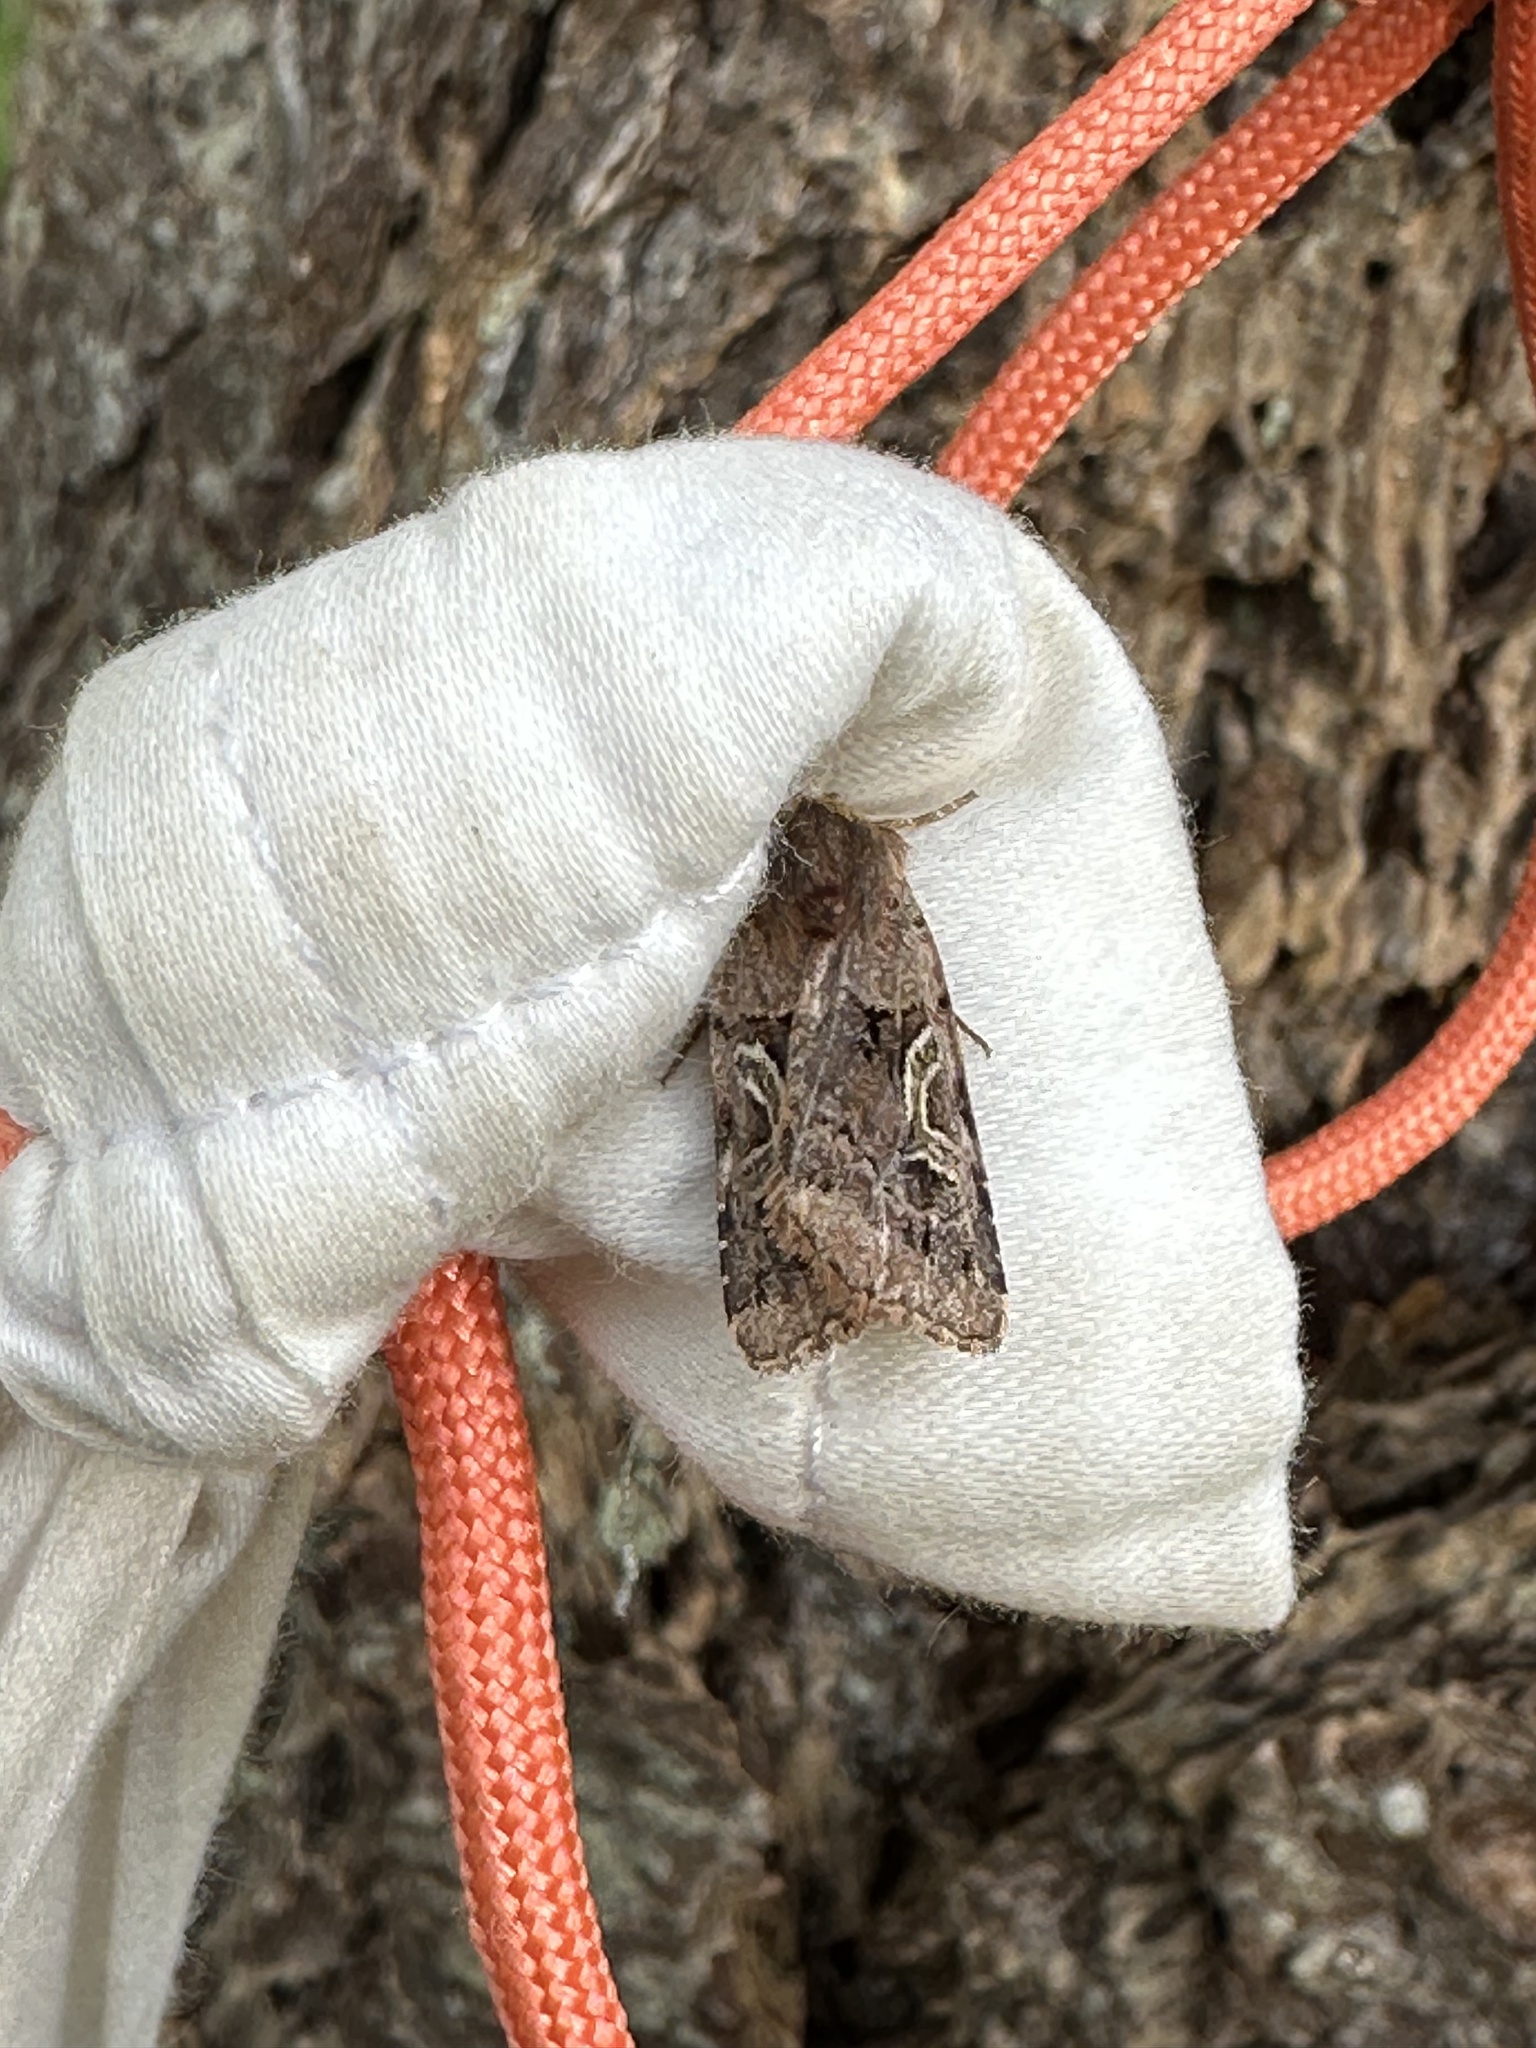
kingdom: Animalia
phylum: Arthropoda
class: Insecta
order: Lepidoptera
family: Noctuidae
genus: Cerastis
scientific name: Cerastis enigmatica
